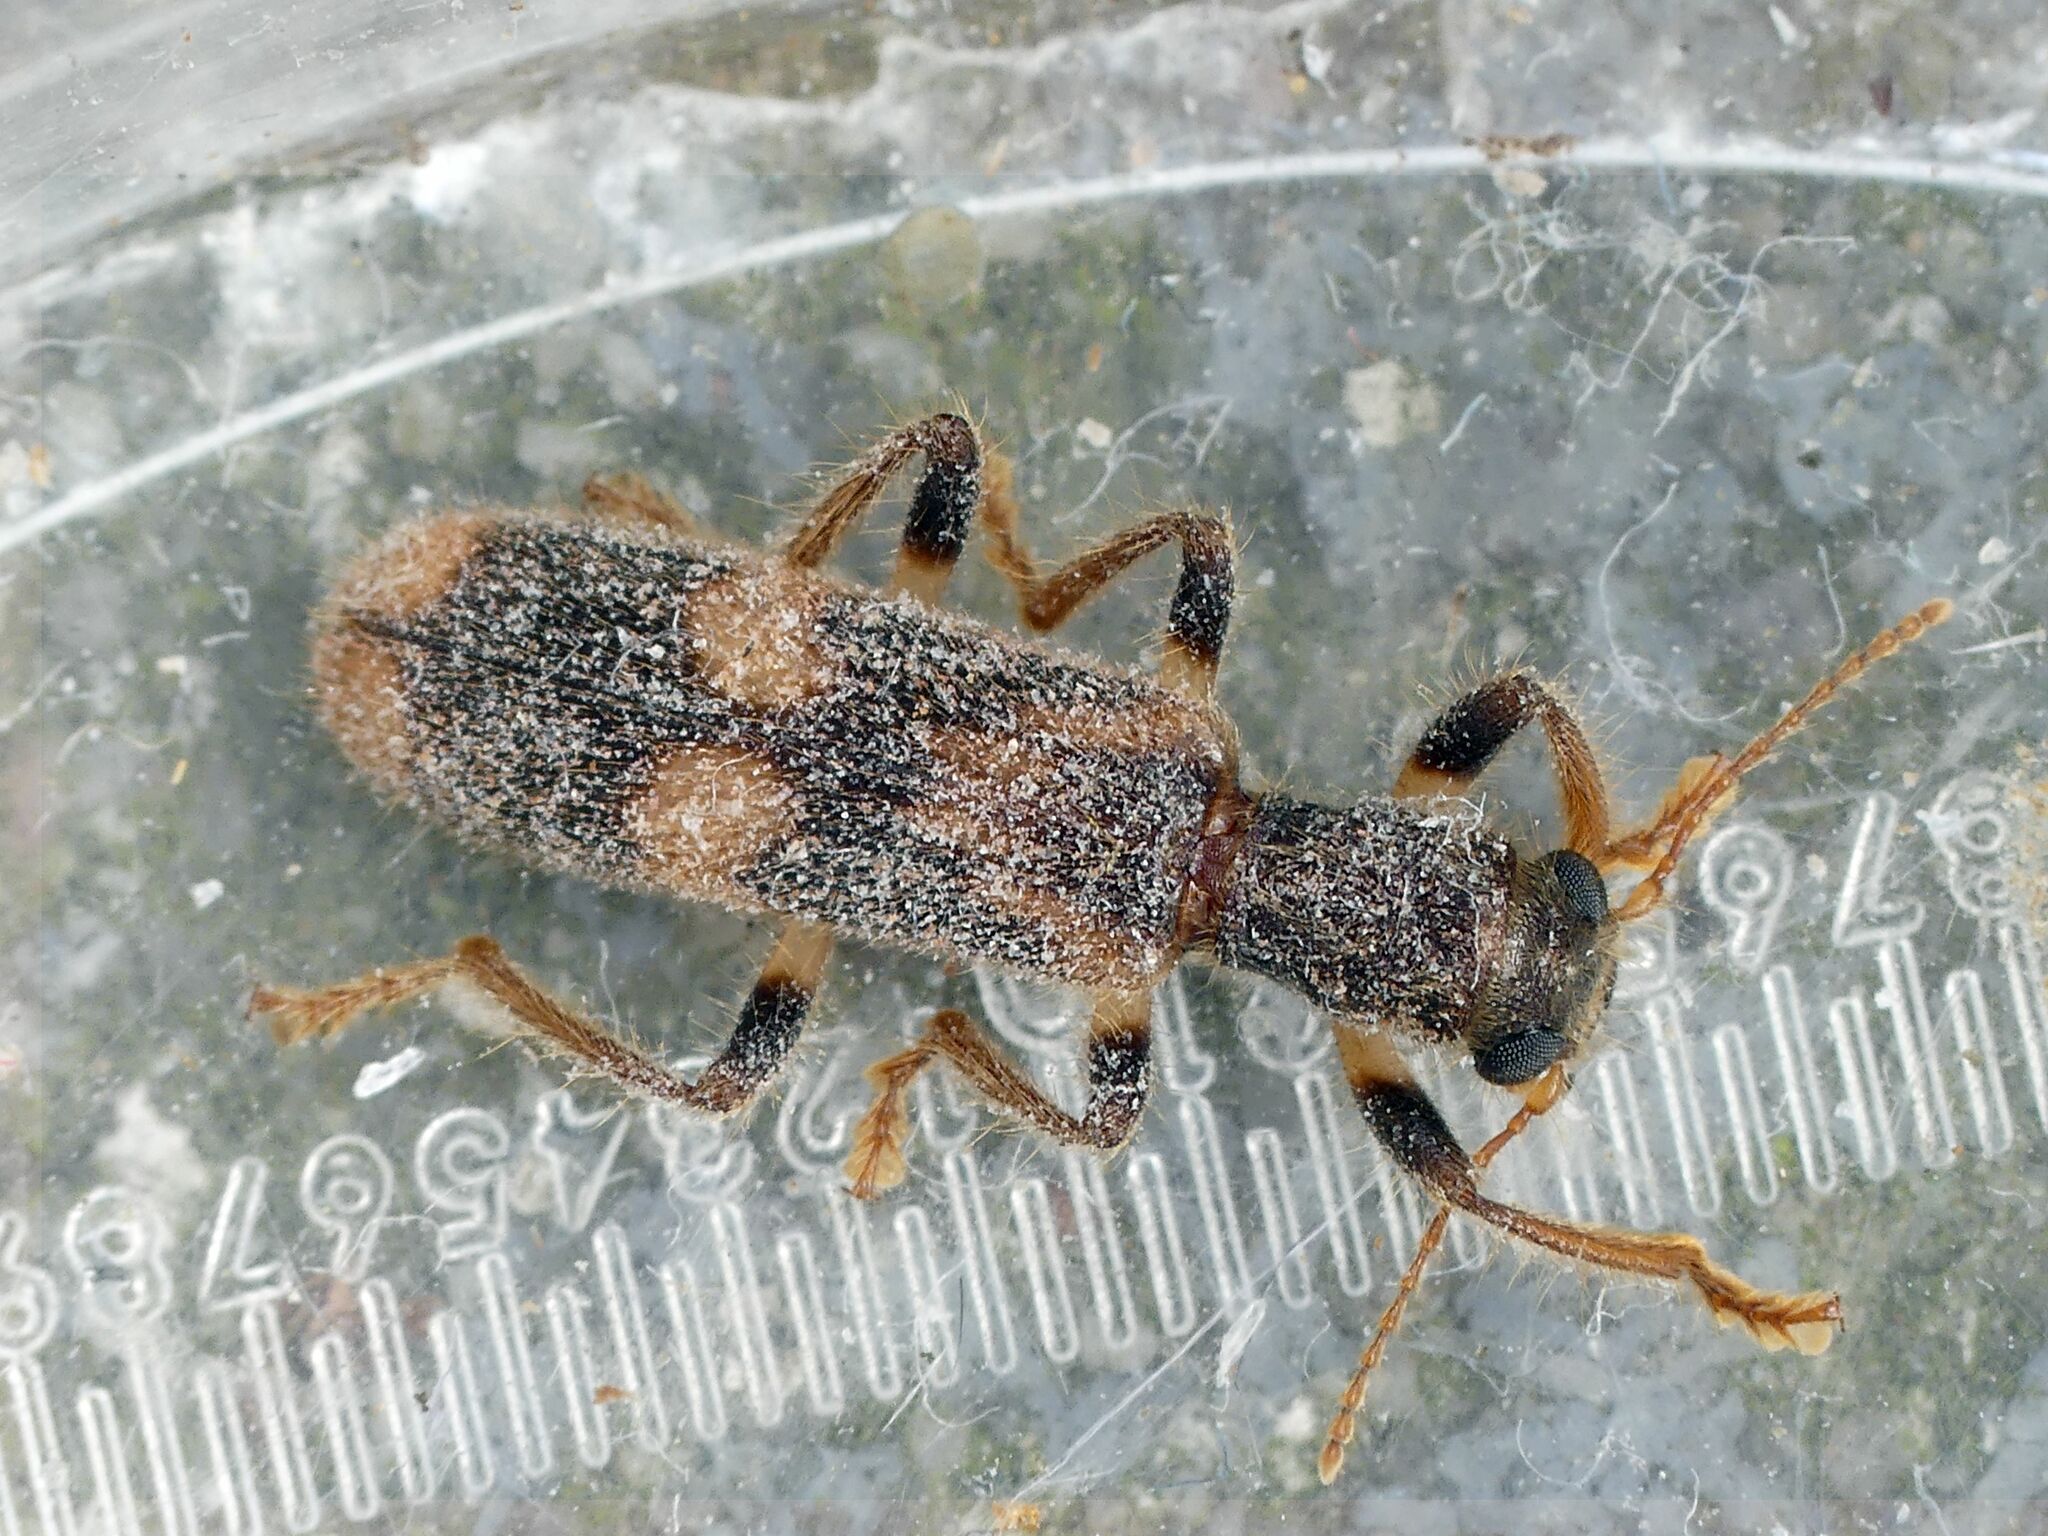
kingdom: Animalia
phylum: Arthropoda
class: Insecta
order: Coleoptera
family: Cleridae
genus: Opilo
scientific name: Opilo mollis
